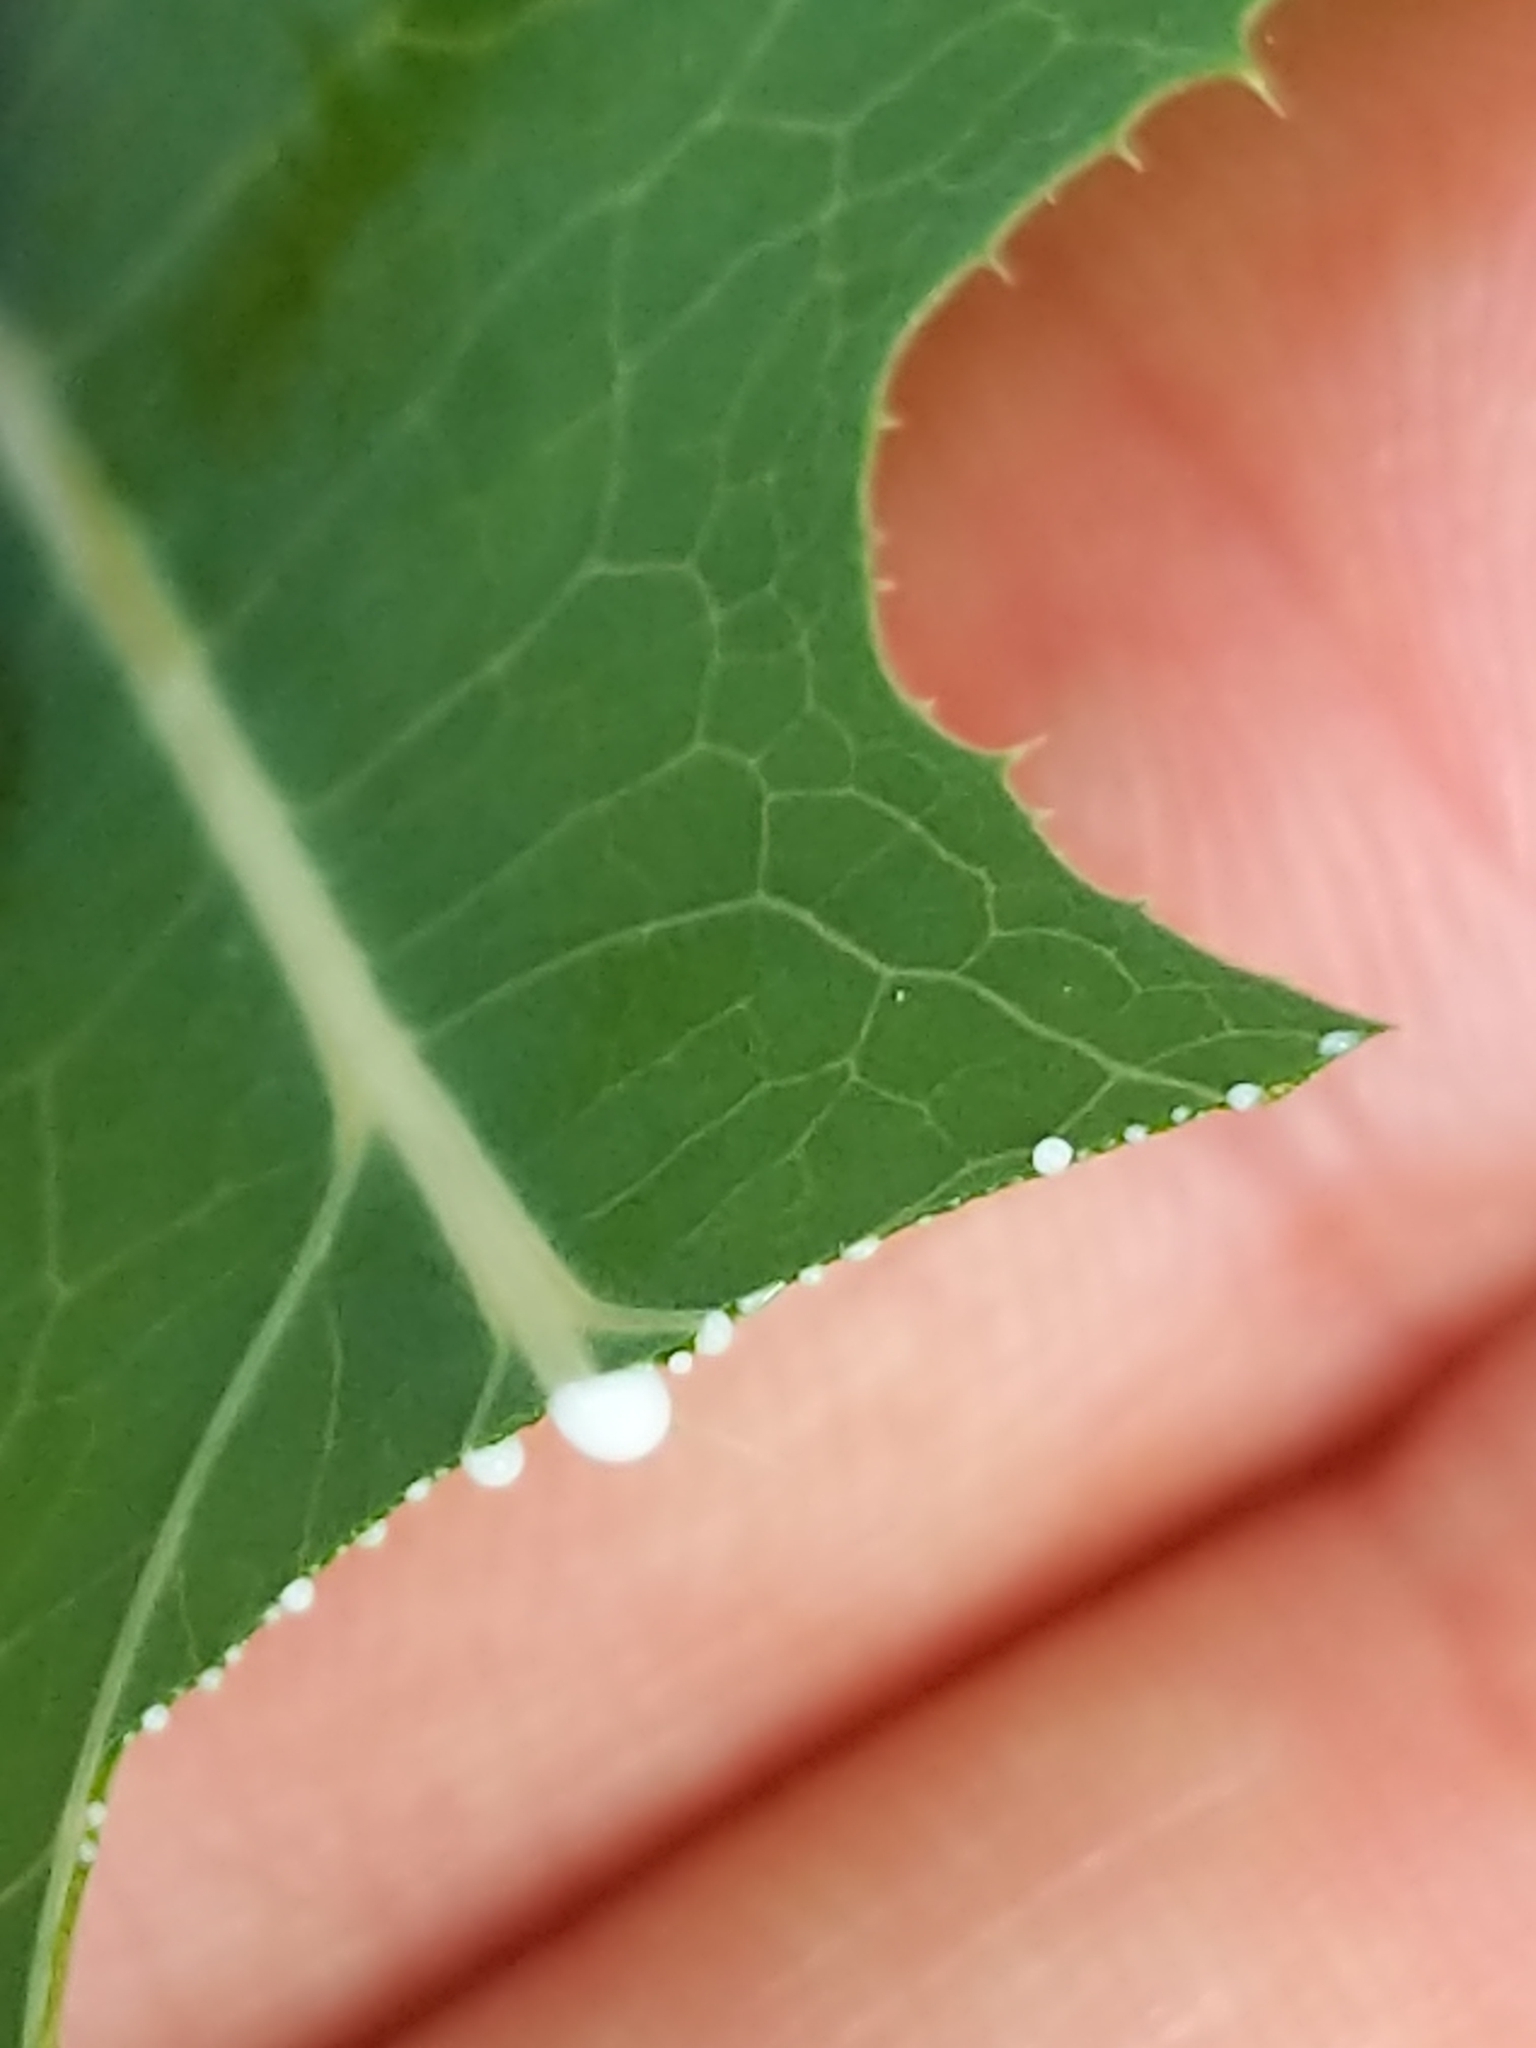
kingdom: Plantae
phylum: Tracheophyta
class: Magnoliopsida
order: Asterales
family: Asteraceae
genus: Lactuca
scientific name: Lactuca serriola
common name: Prickly lettuce
